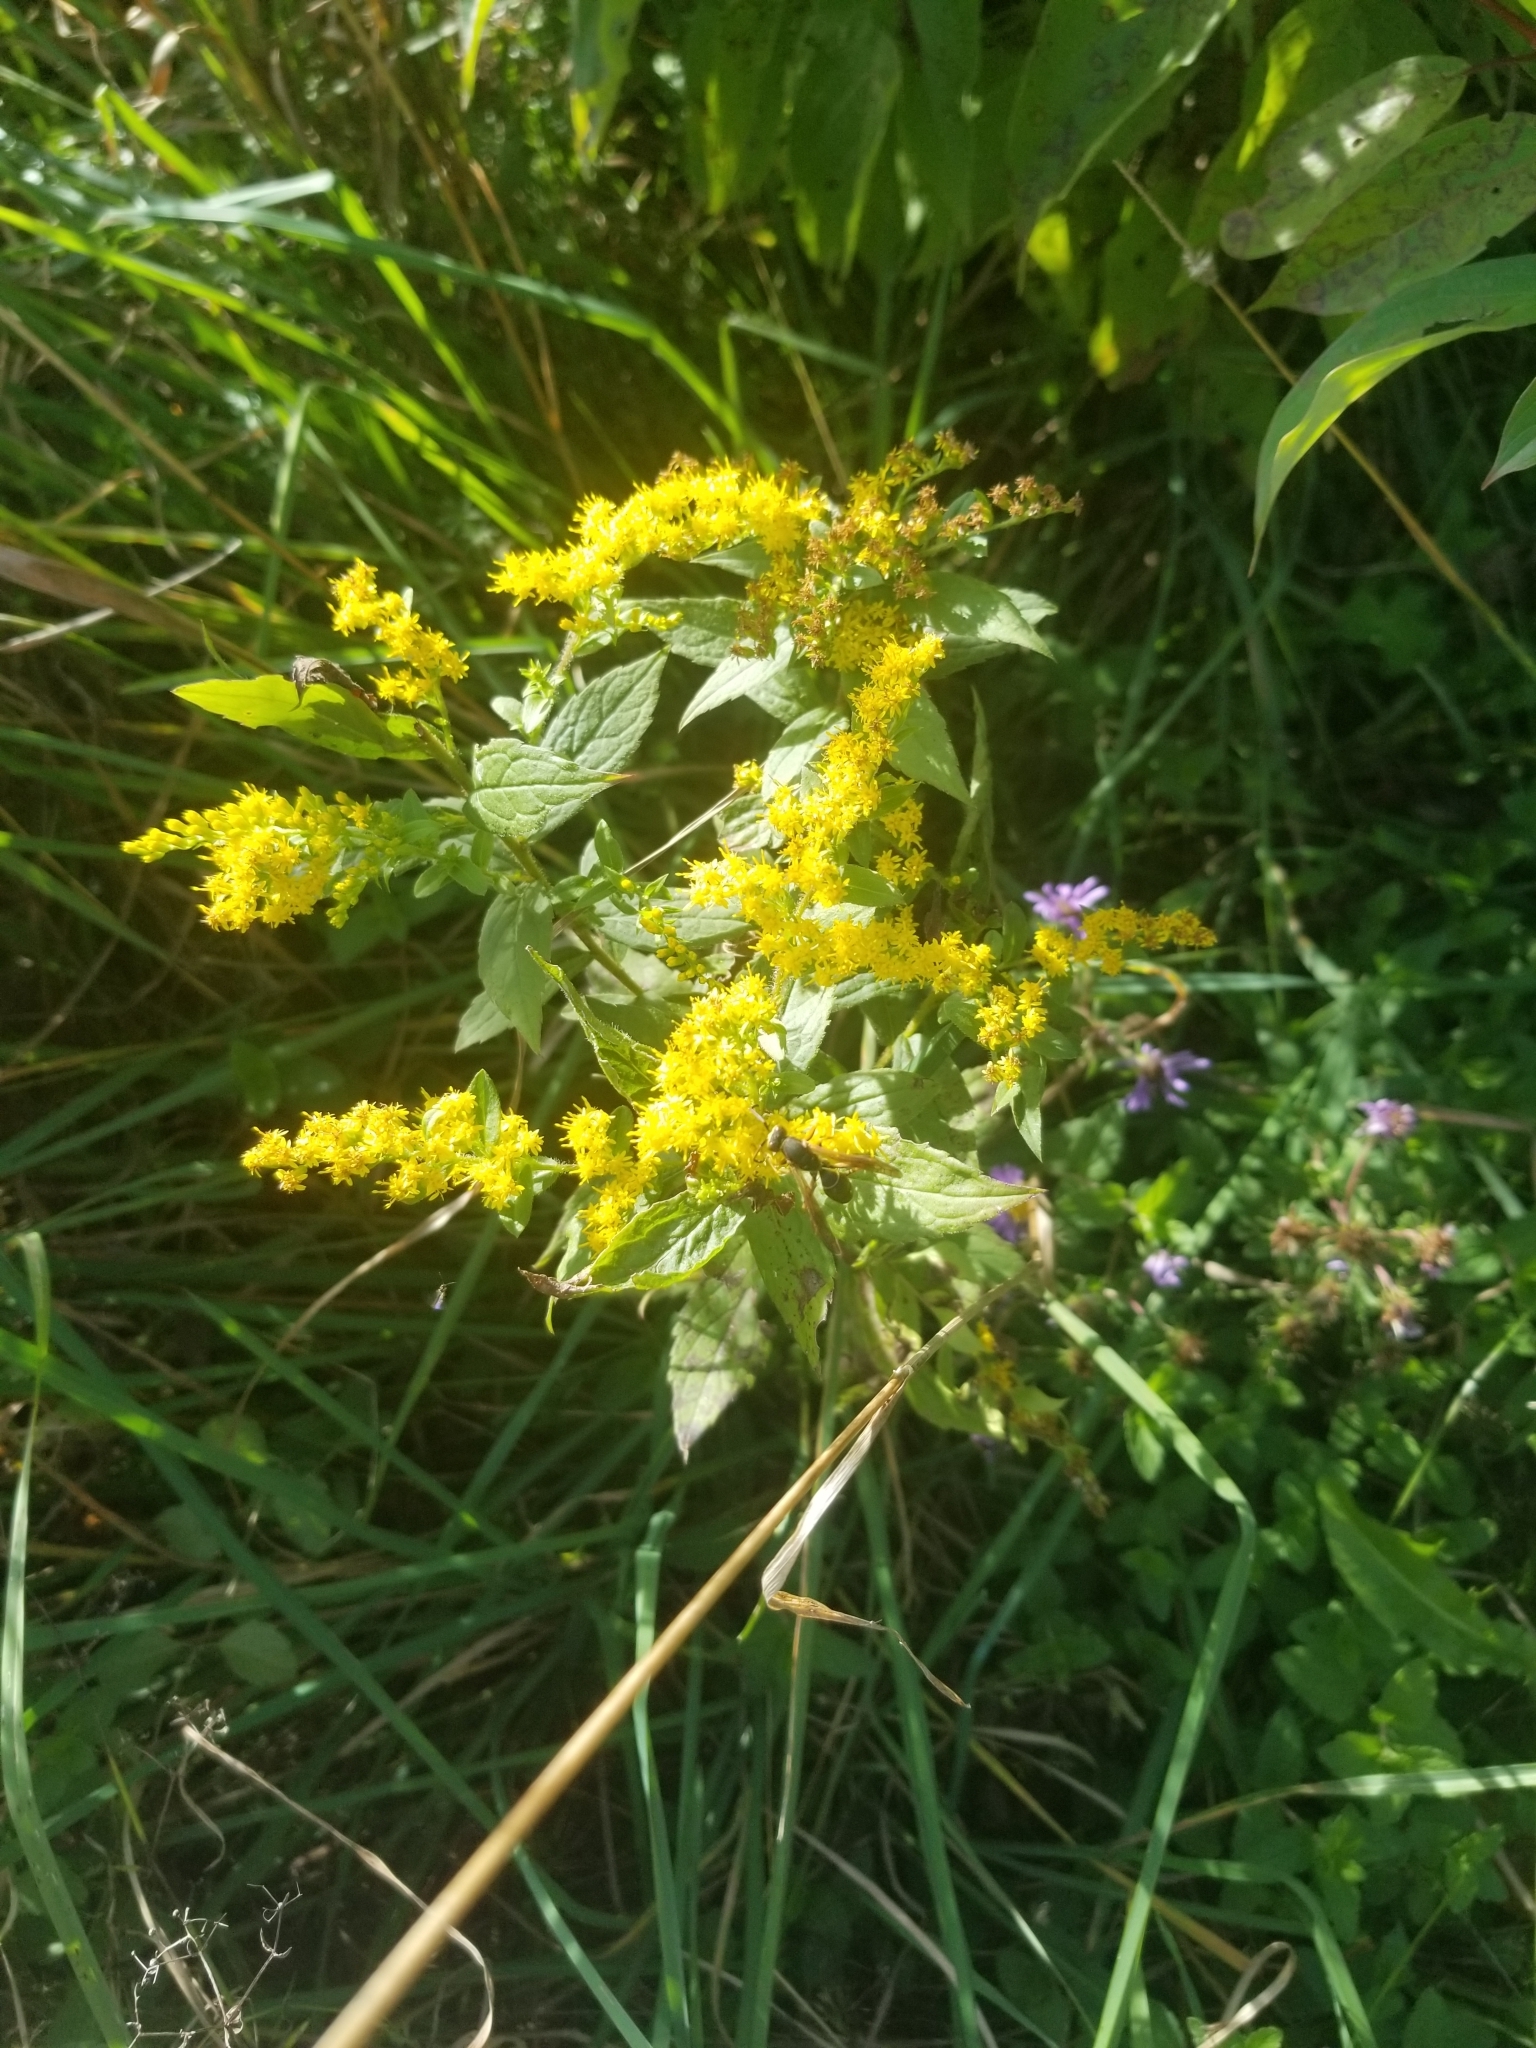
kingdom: Animalia
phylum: Arthropoda
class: Insecta
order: Hymenoptera
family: Eumenidae
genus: Polistes
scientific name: Polistes fuscatus
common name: Dark paper wasp
